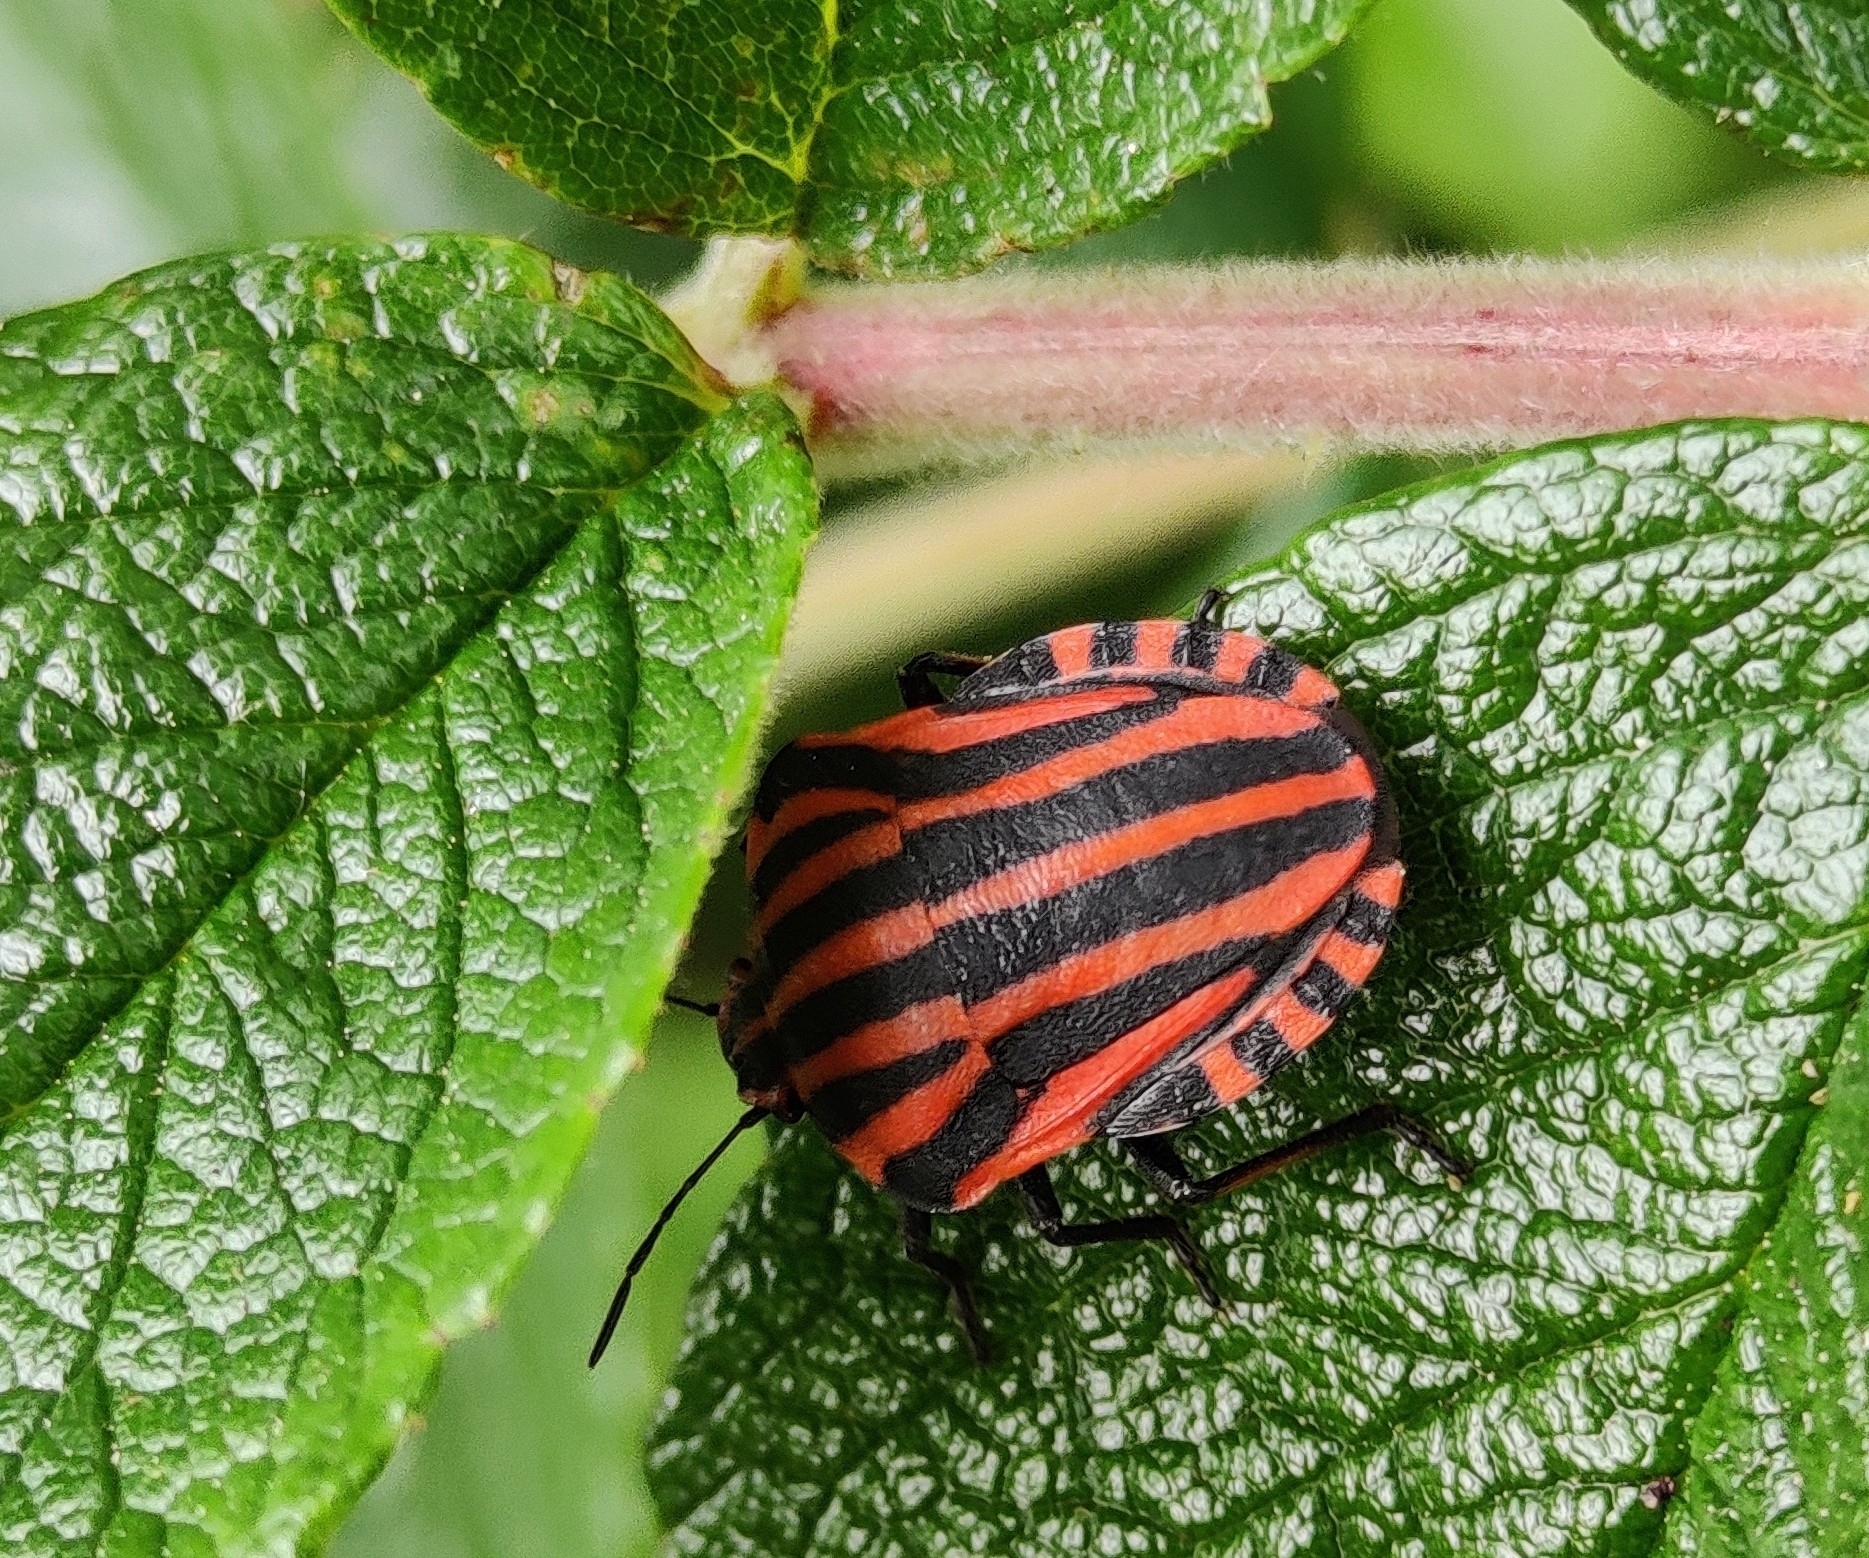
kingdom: Animalia
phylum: Arthropoda
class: Insecta
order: Hemiptera
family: Pentatomidae
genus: Graphosoma
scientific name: Graphosoma italicum
